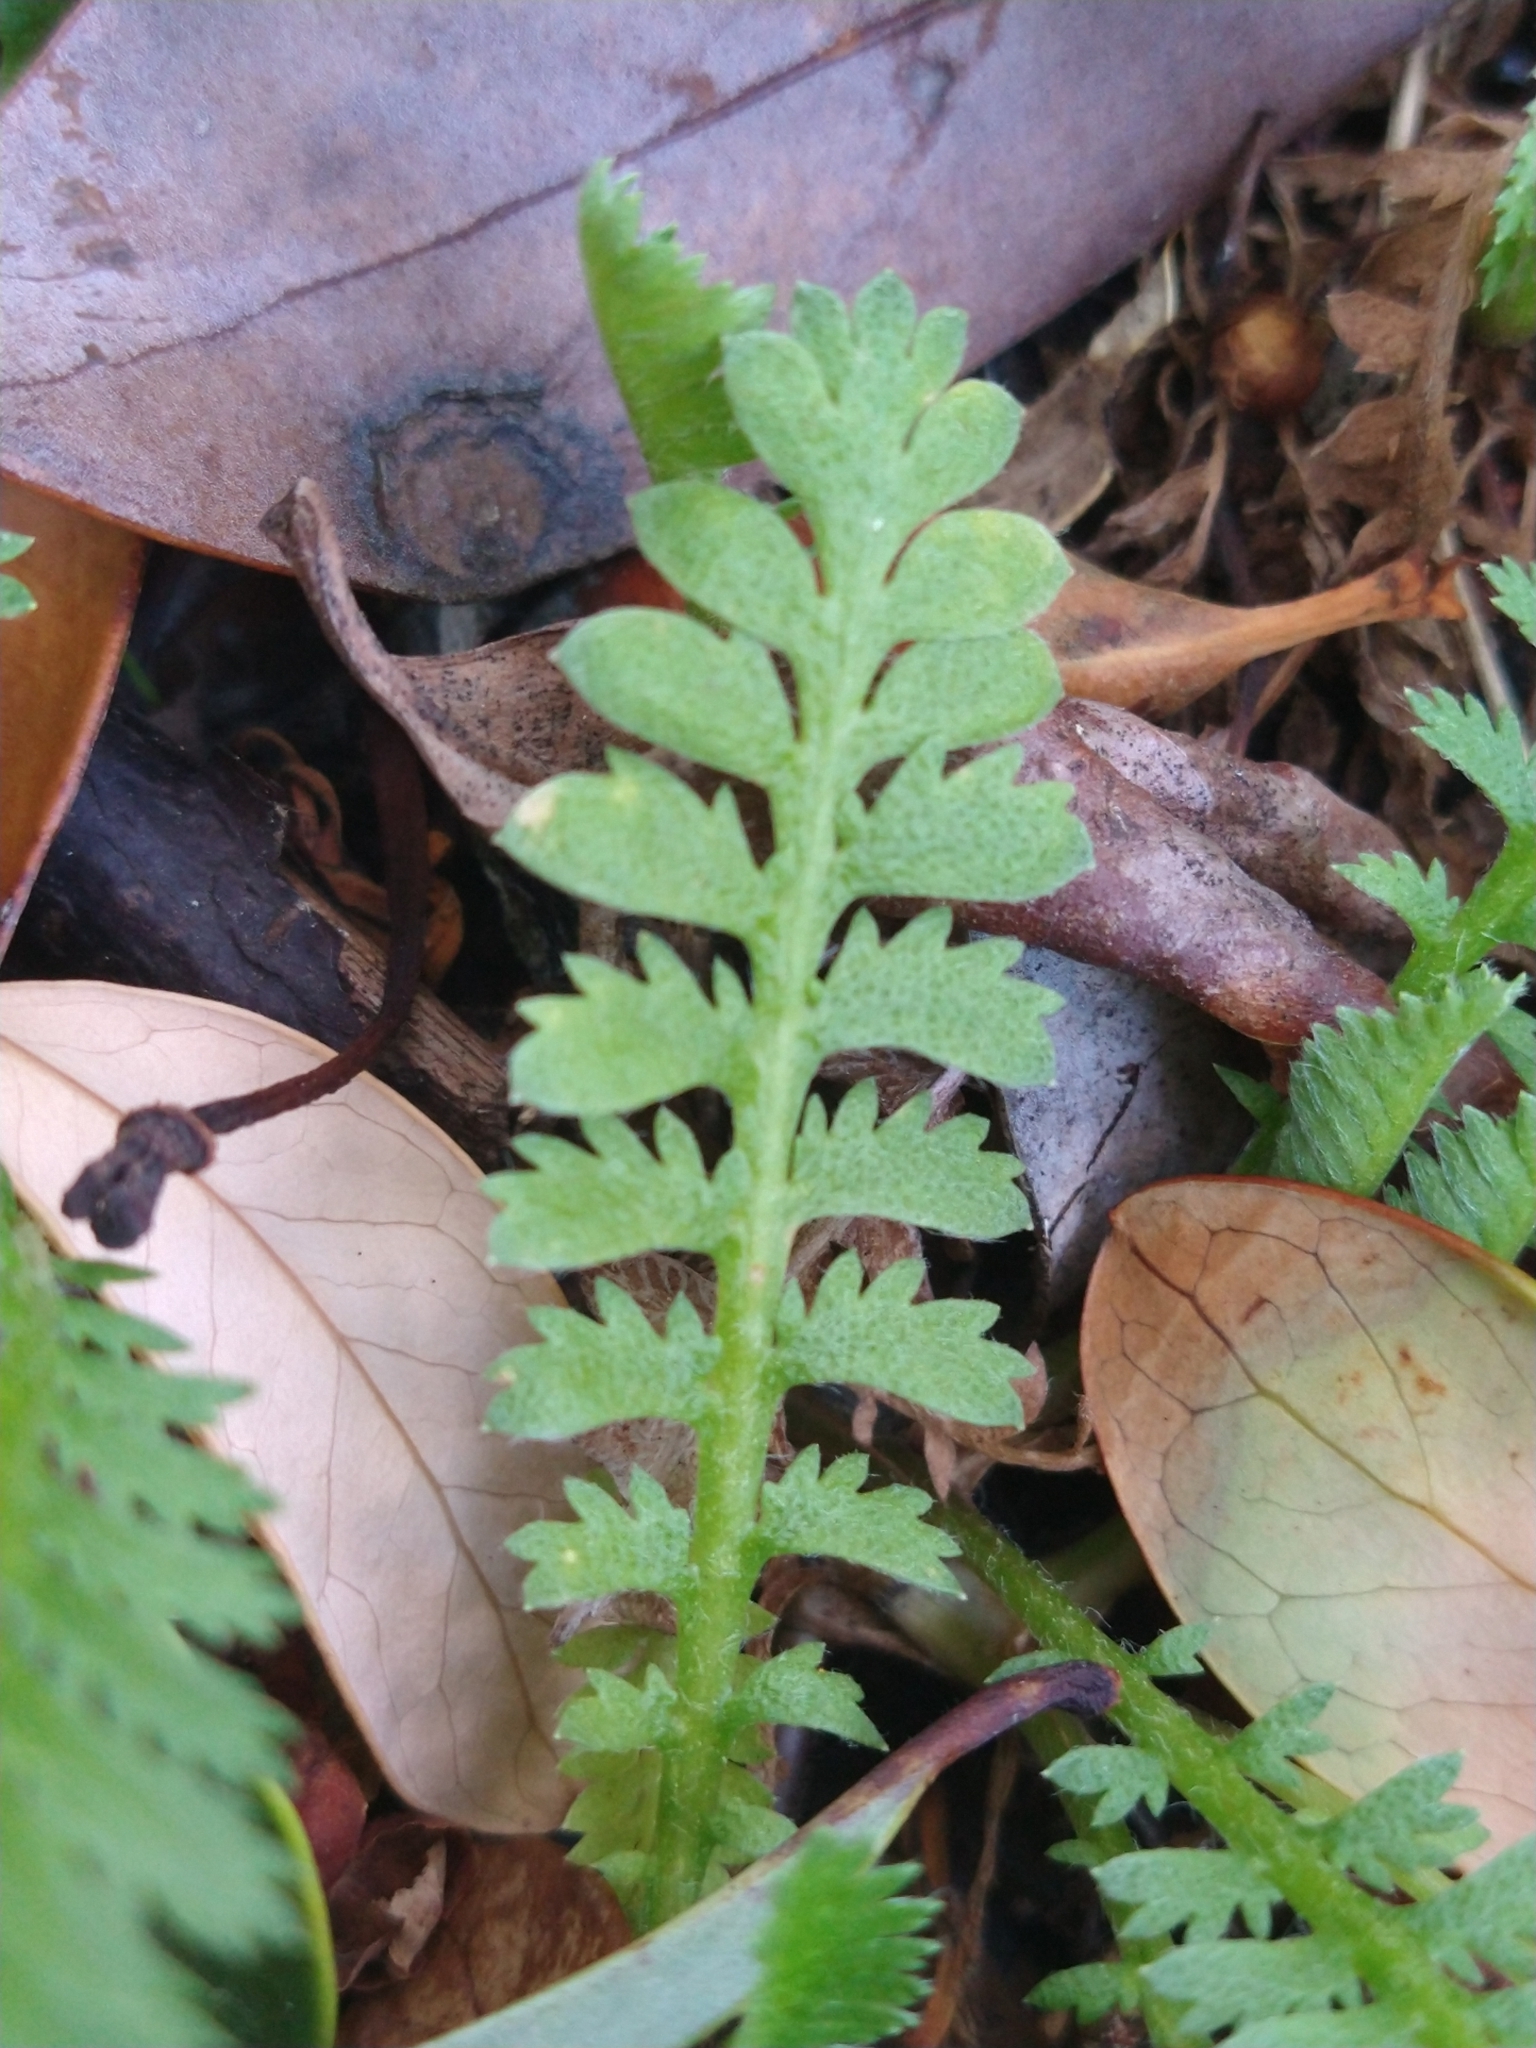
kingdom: Plantae
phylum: Tracheophyta
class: Magnoliopsida
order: Asterales
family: Asteraceae
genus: Leptinella
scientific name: Leptinella scariosa
